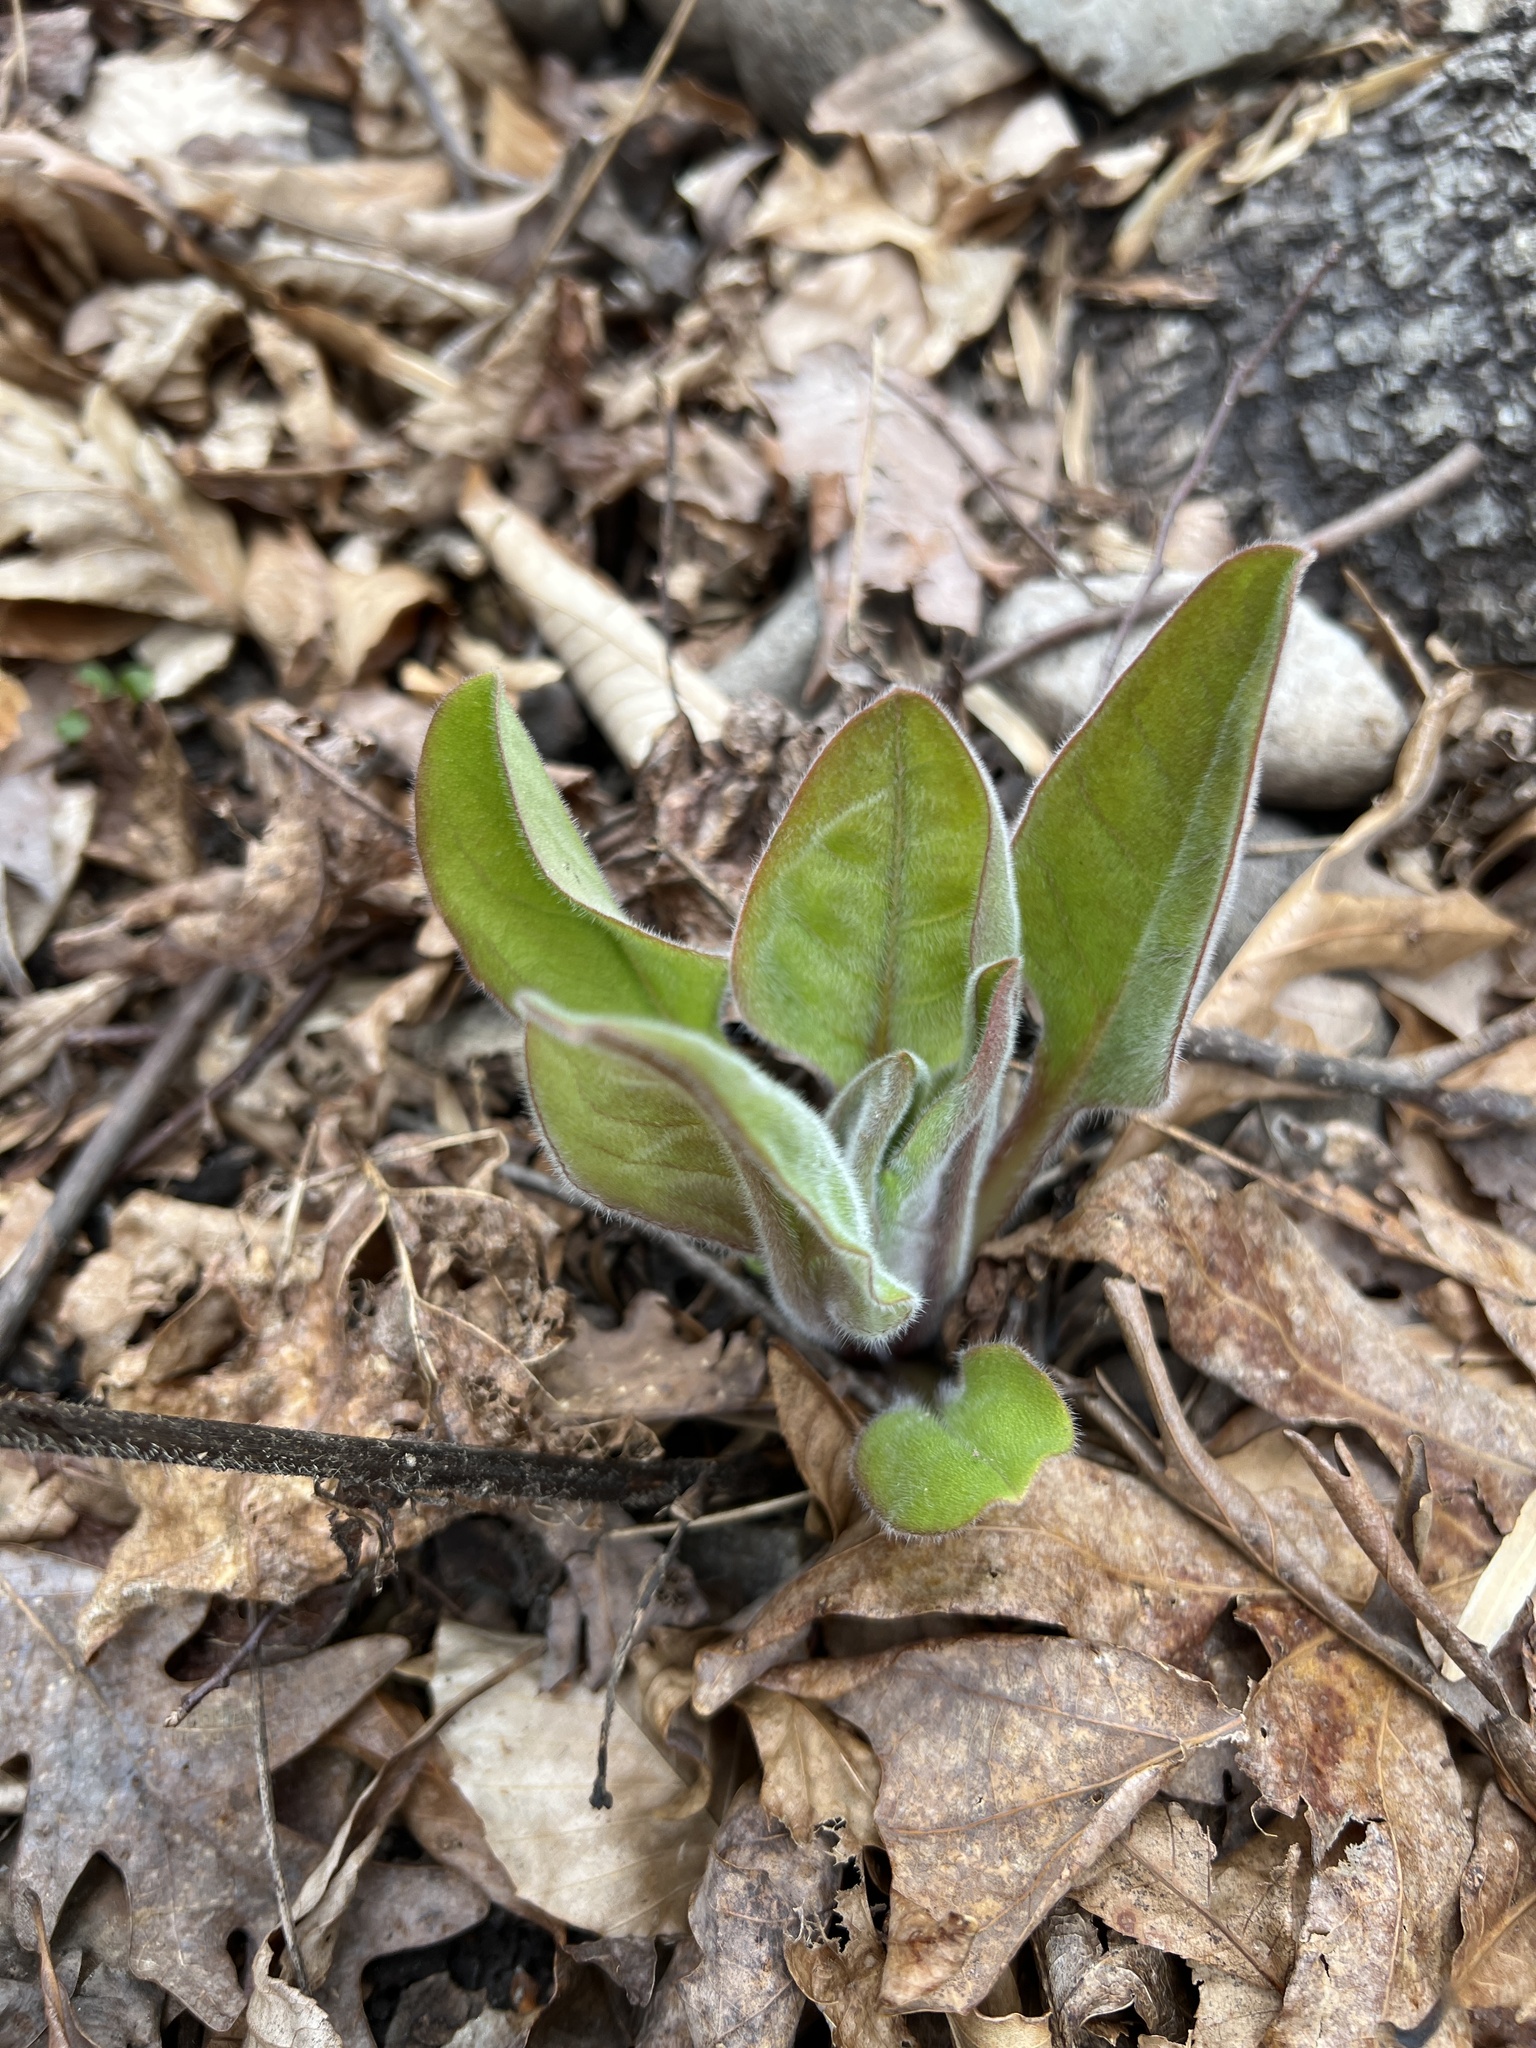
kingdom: Plantae
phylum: Tracheophyta
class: Magnoliopsida
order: Boraginales
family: Boraginaceae
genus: Andersonglossum
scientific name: Andersonglossum virginianum
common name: Wild comfrey
